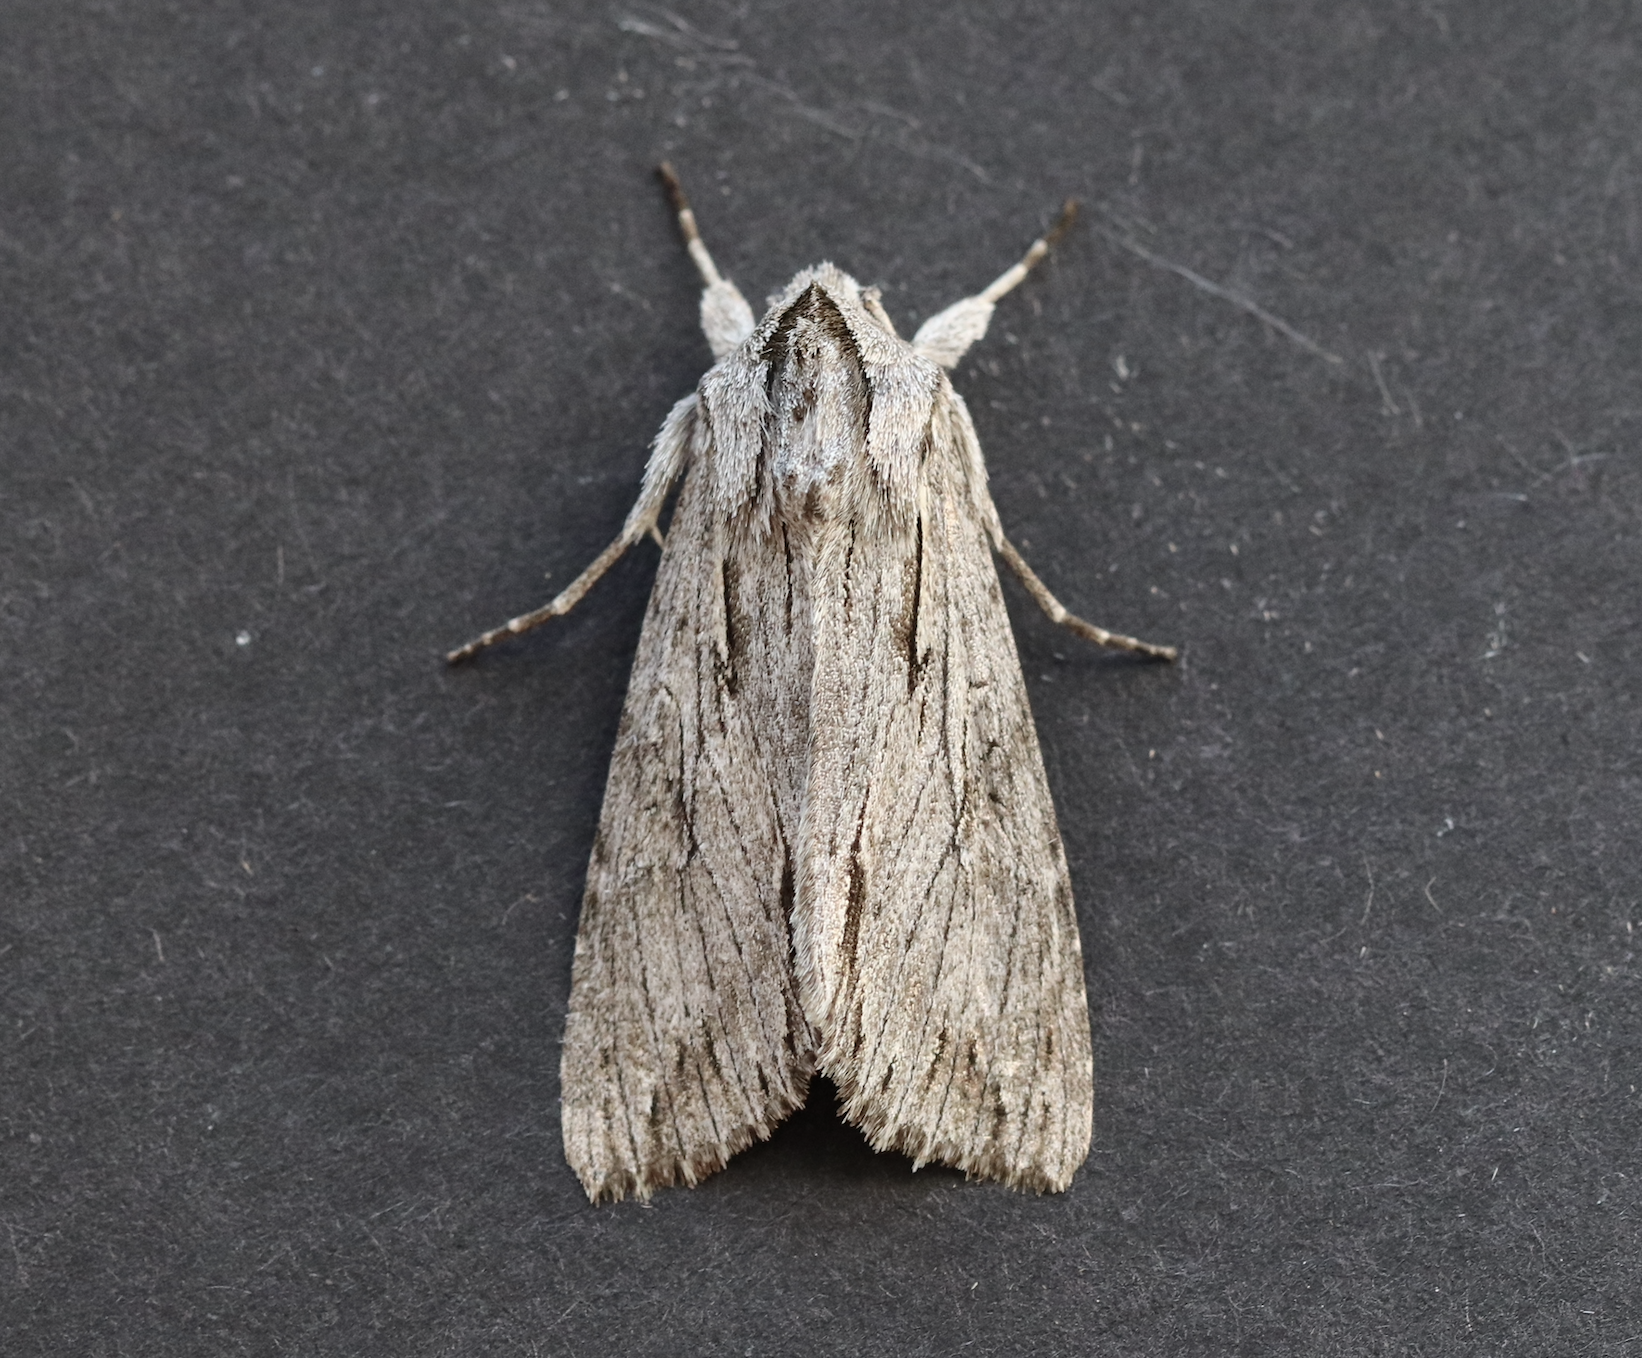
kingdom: Animalia
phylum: Arthropoda
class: Insecta
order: Lepidoptera
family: Noctuidae
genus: Auchmis
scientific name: Auchmis detersa
